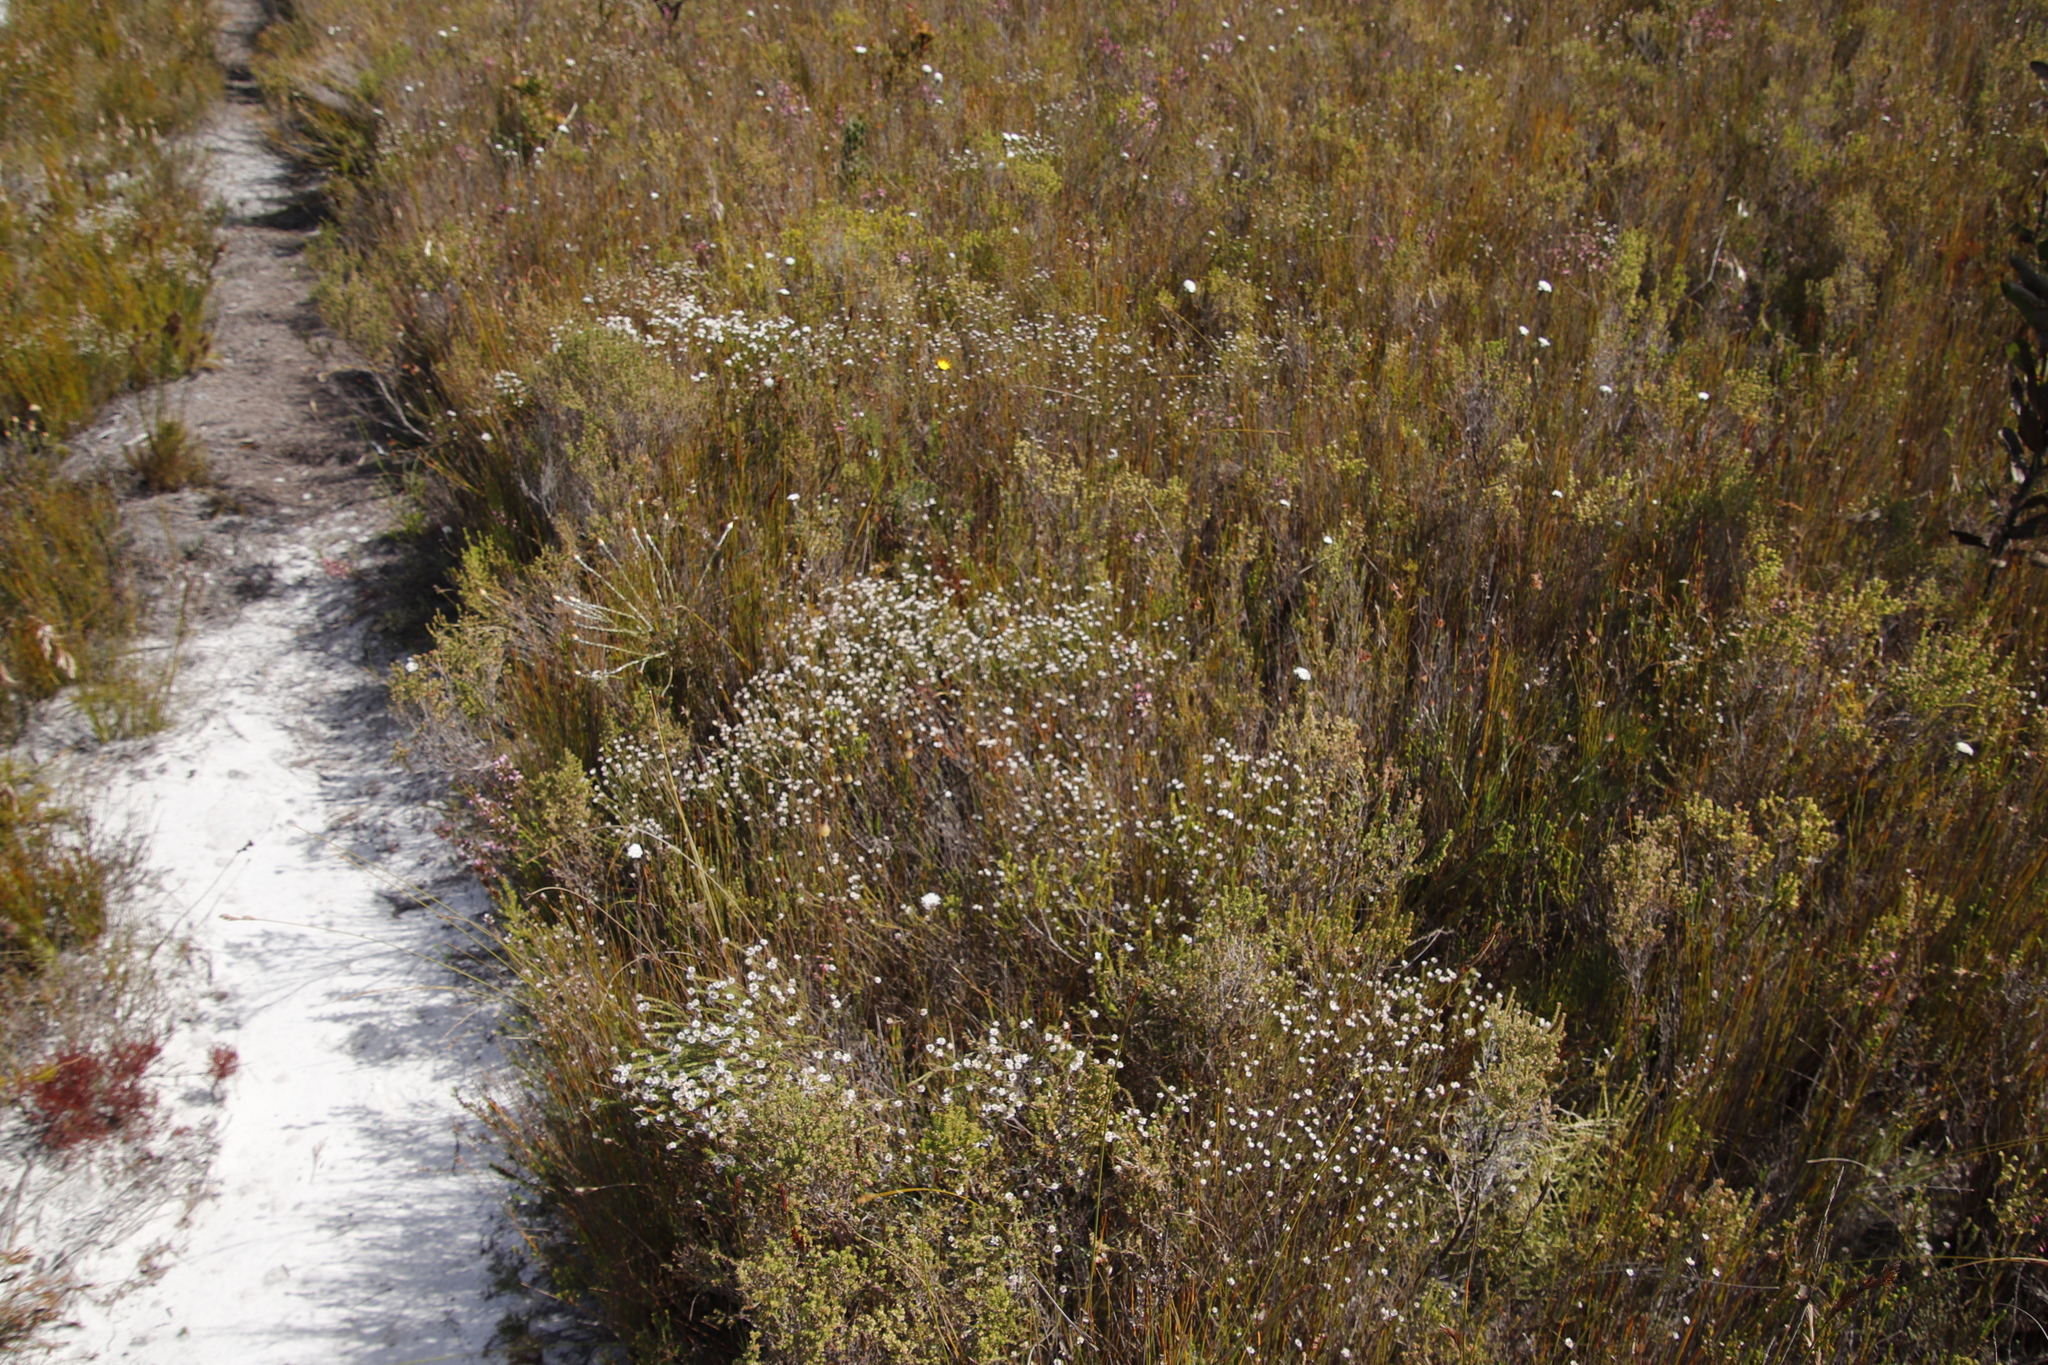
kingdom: Plantae
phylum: Tracheophyta
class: Magnoliopsida
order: Bruniales
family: Bruniaceae
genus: Staavia
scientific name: Staavia radiata
